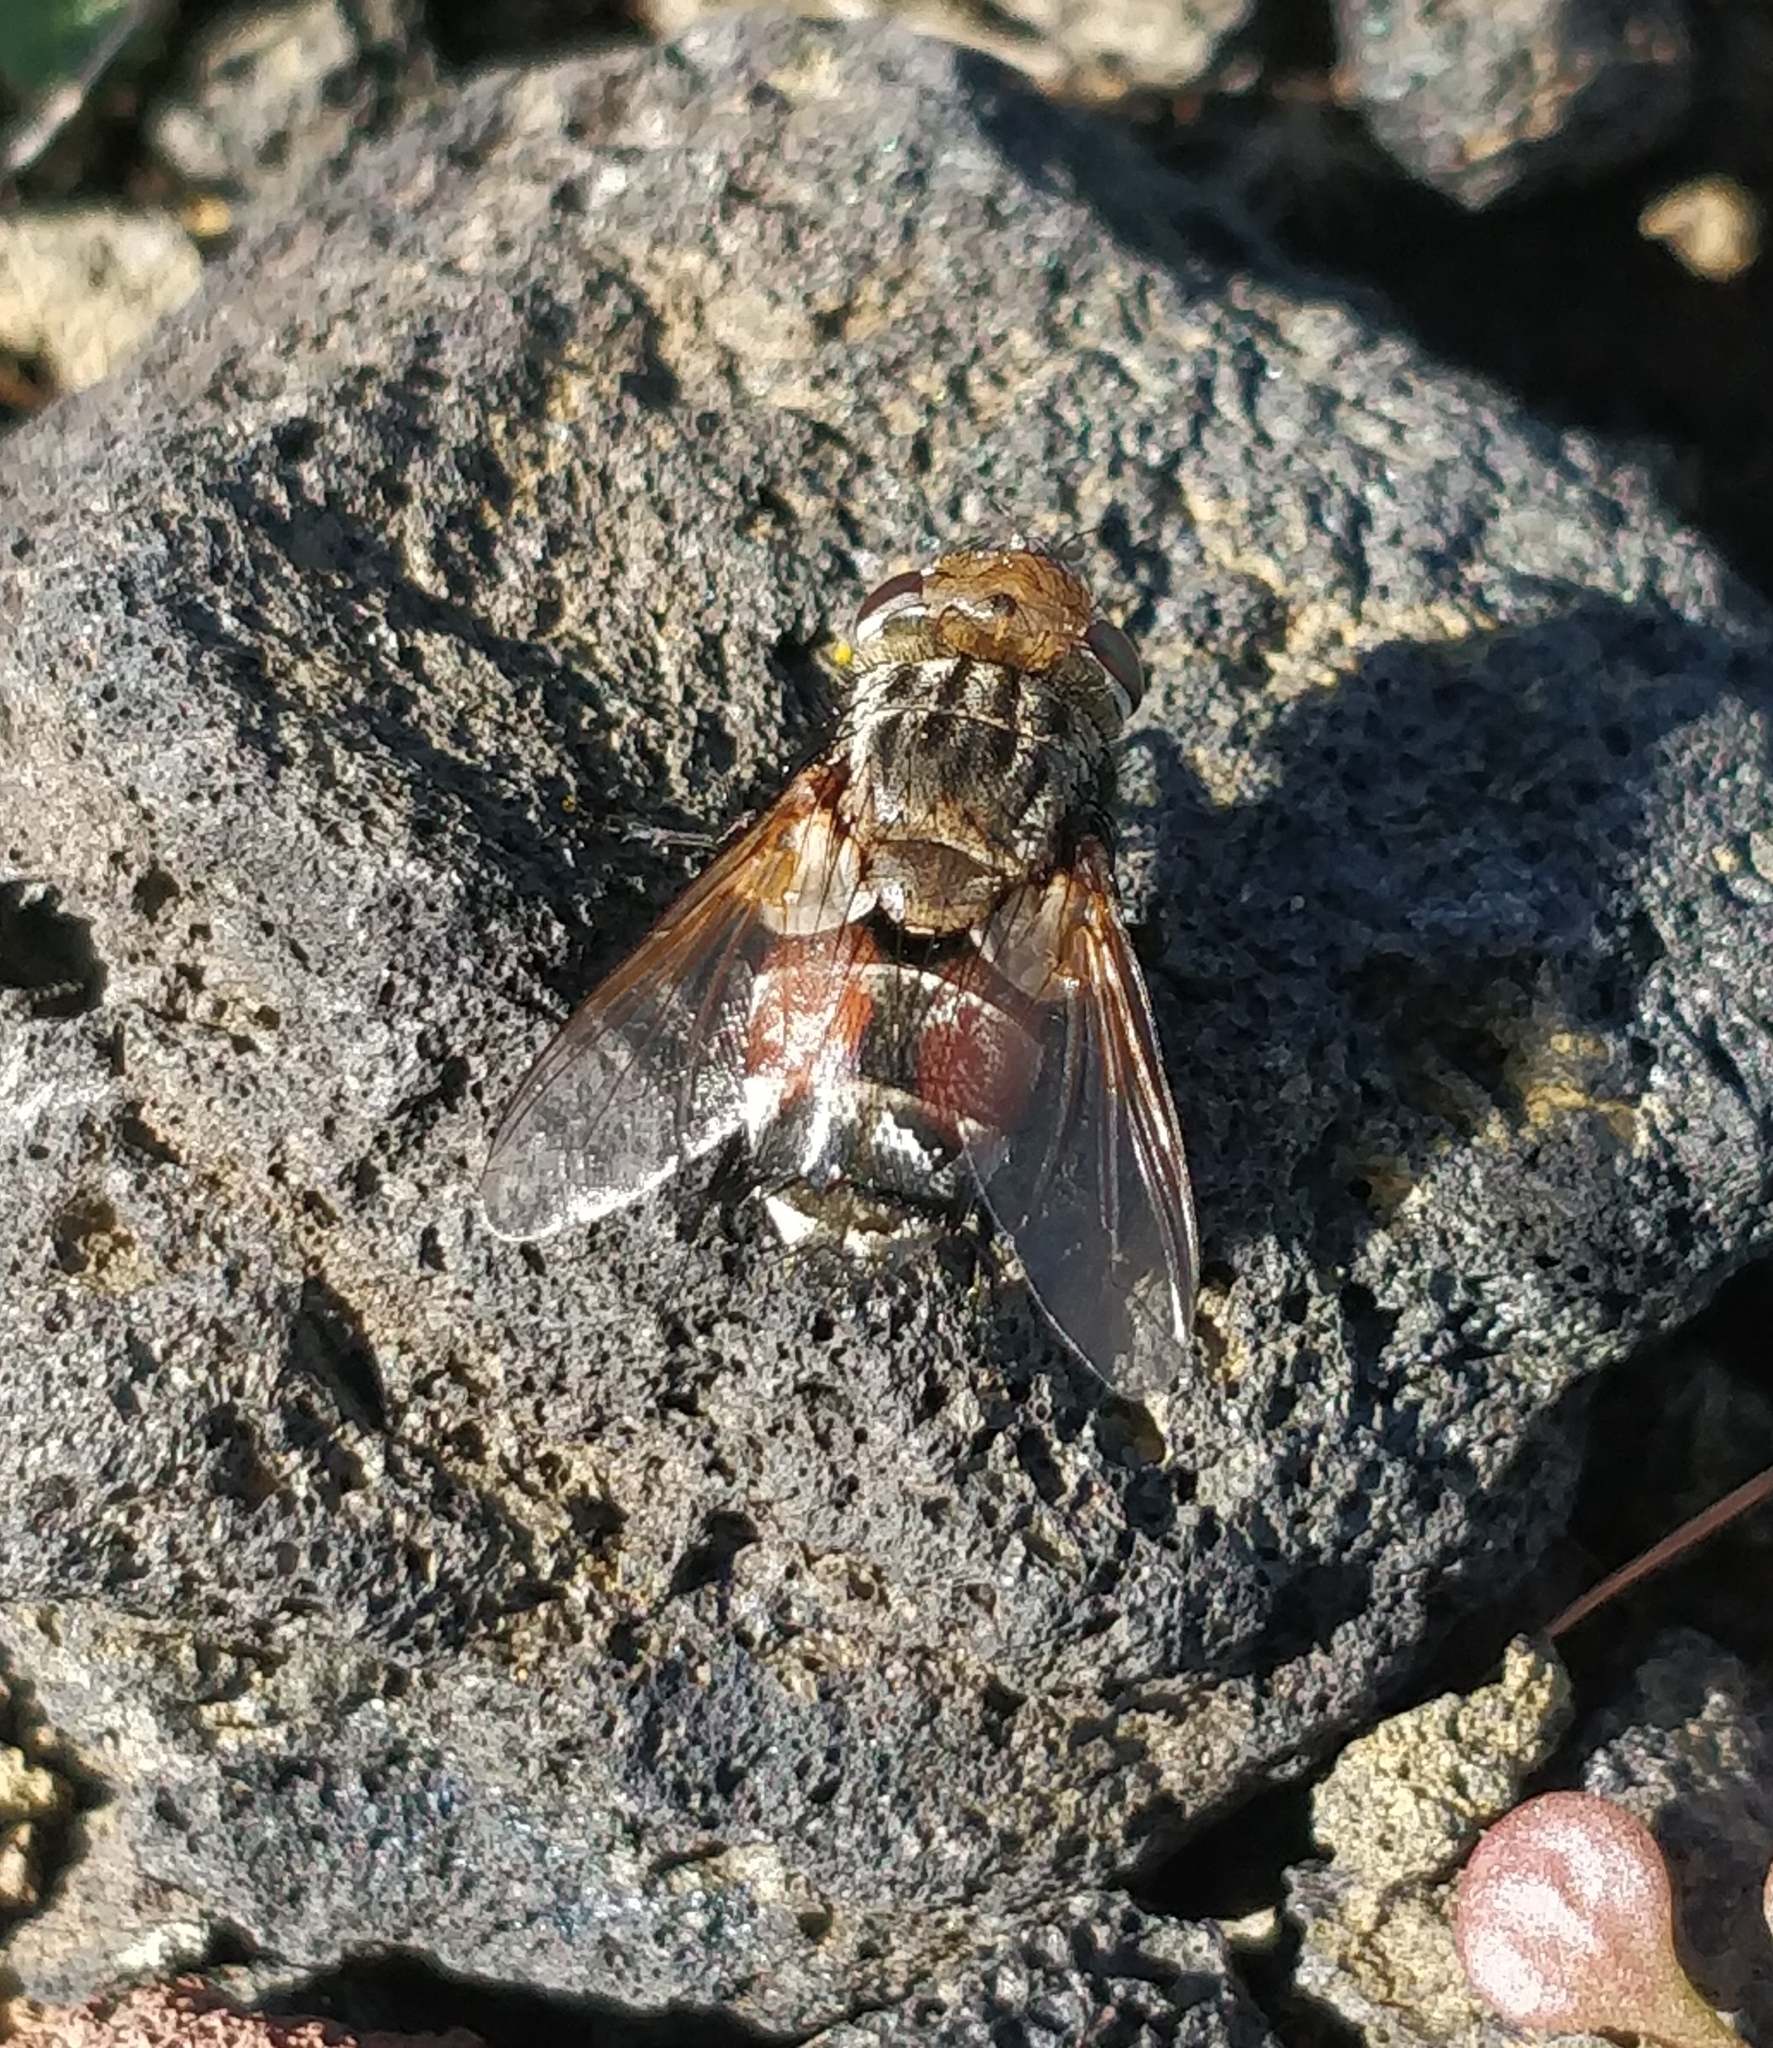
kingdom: Animalia
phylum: Arthropoda
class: Insecta
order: Diptera
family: Tachinidae
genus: Gonia
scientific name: Gonia bimaculata
